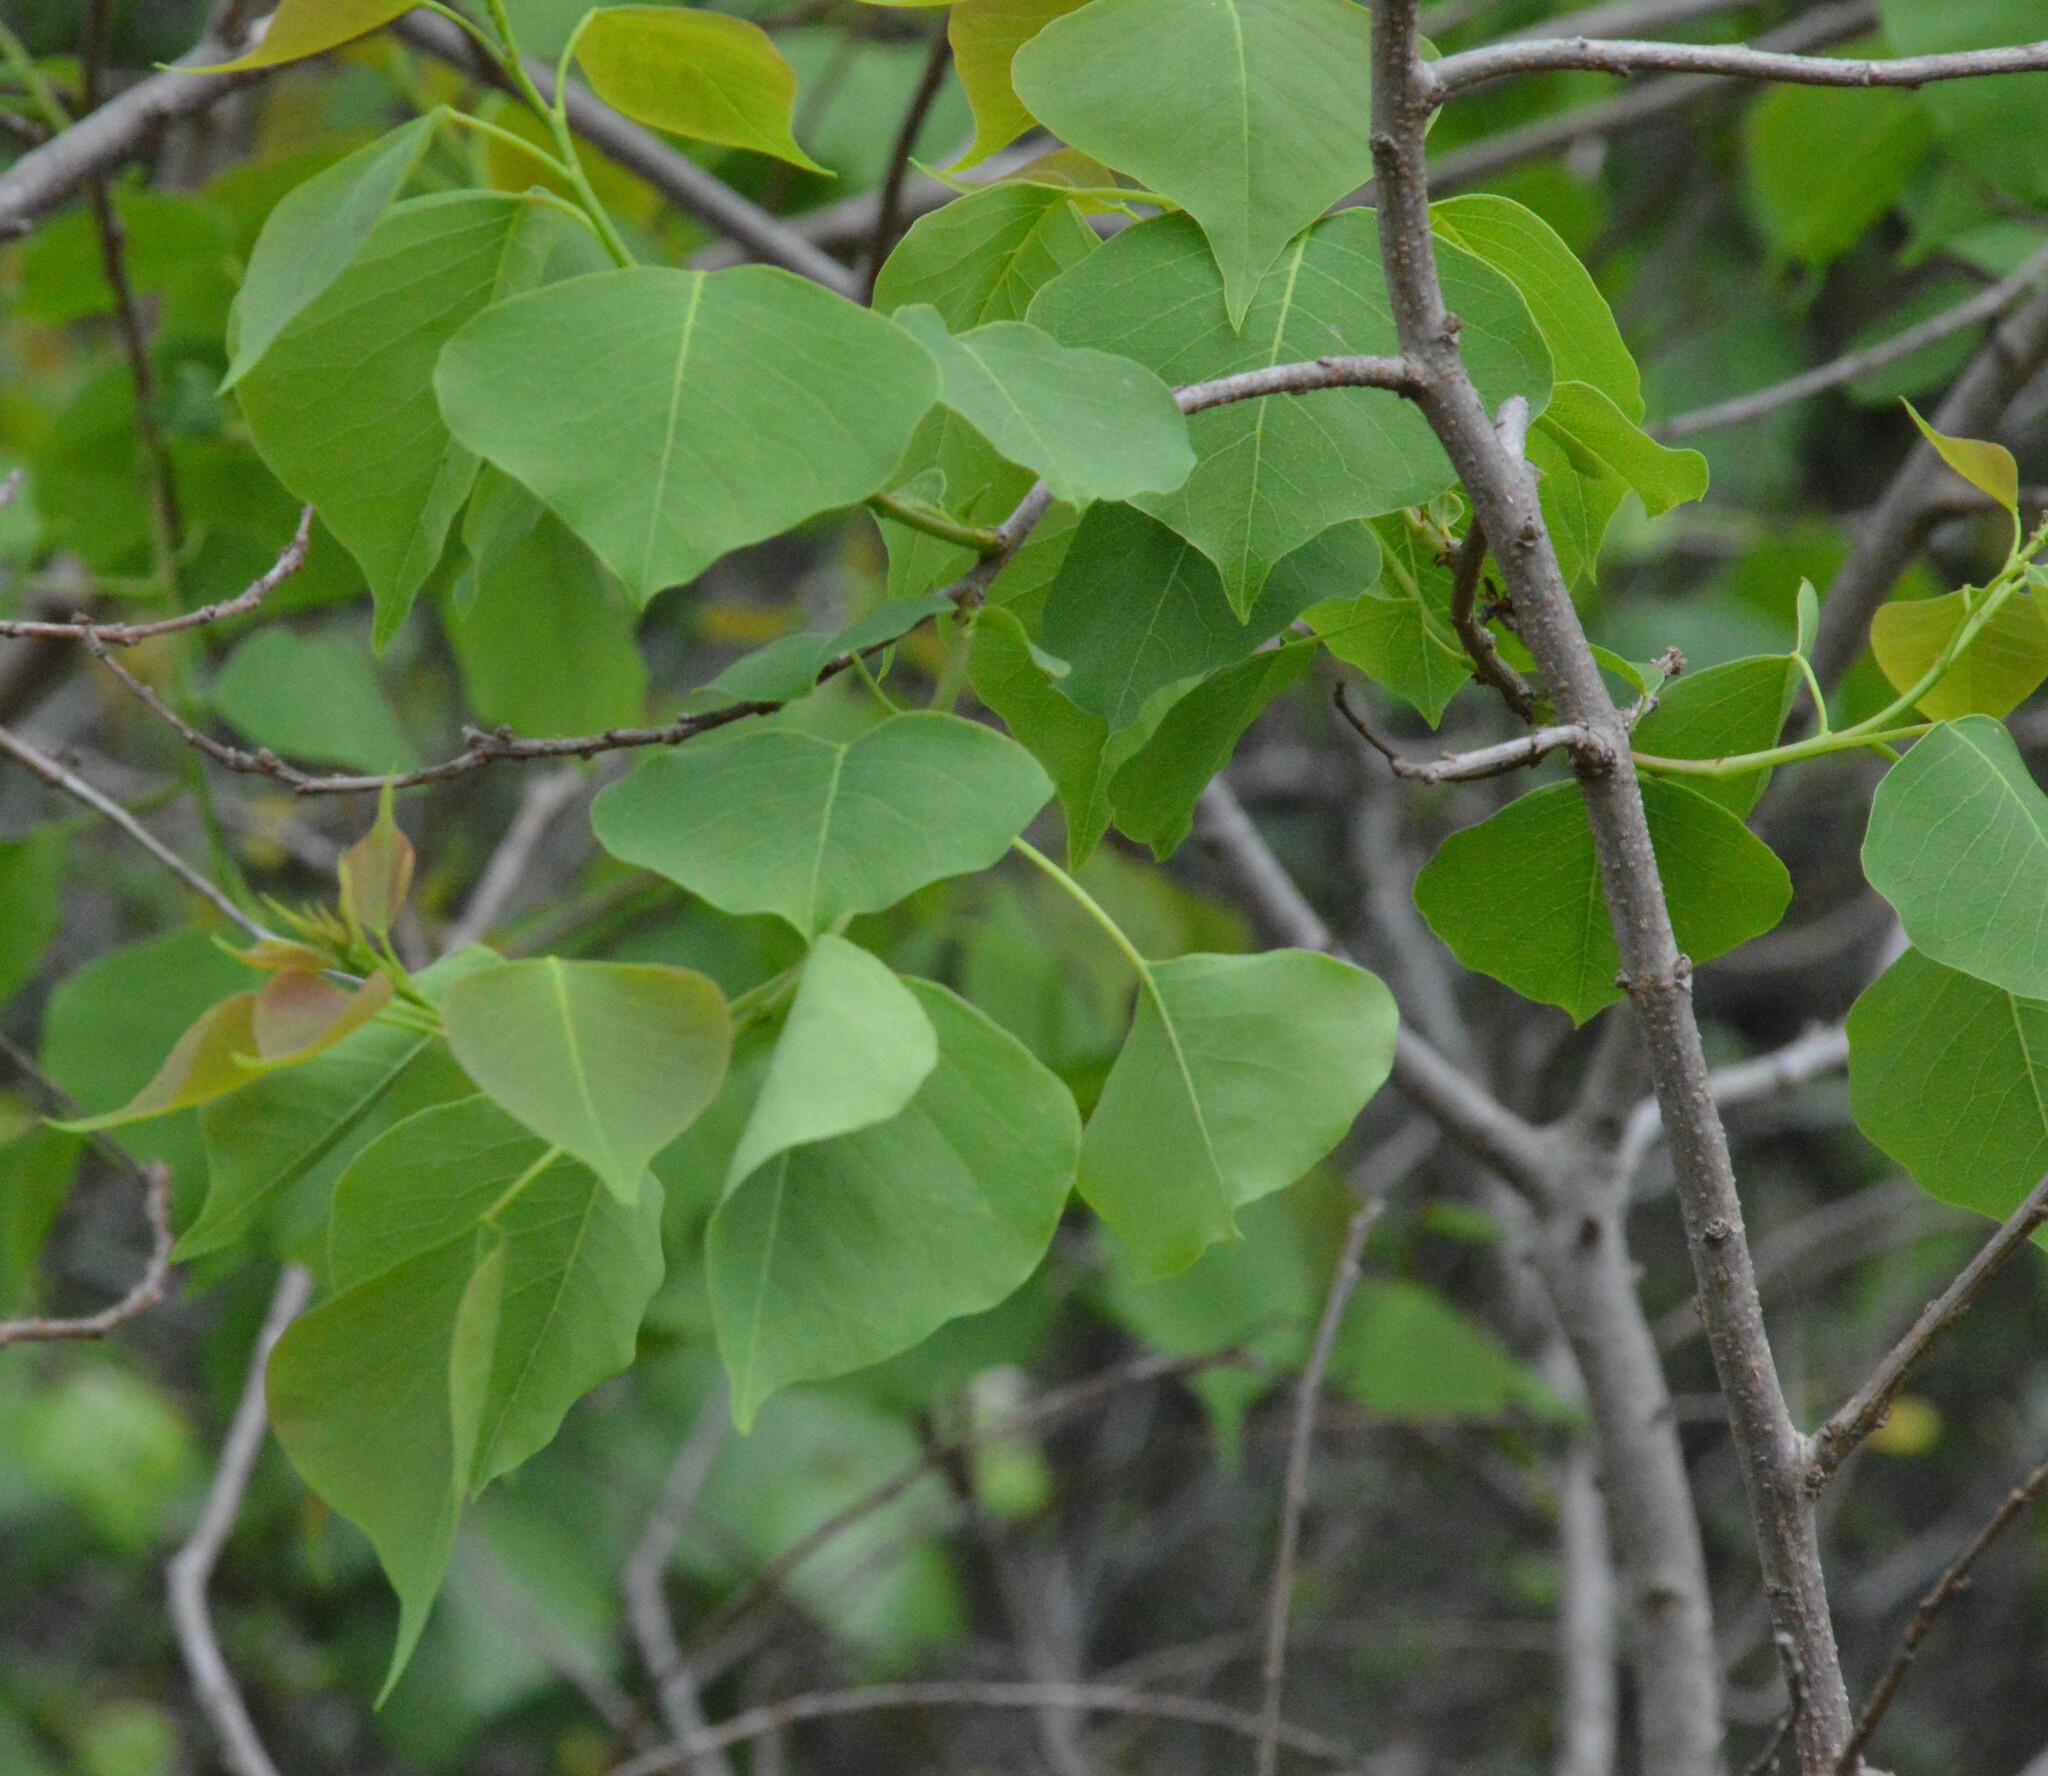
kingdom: Plantae
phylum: Tracheophyta
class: Magnoliopsida
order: Malpighiales
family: Euphorbiaceae
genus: Triadica
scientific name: Triadica sebifera
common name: Chinese tallow
